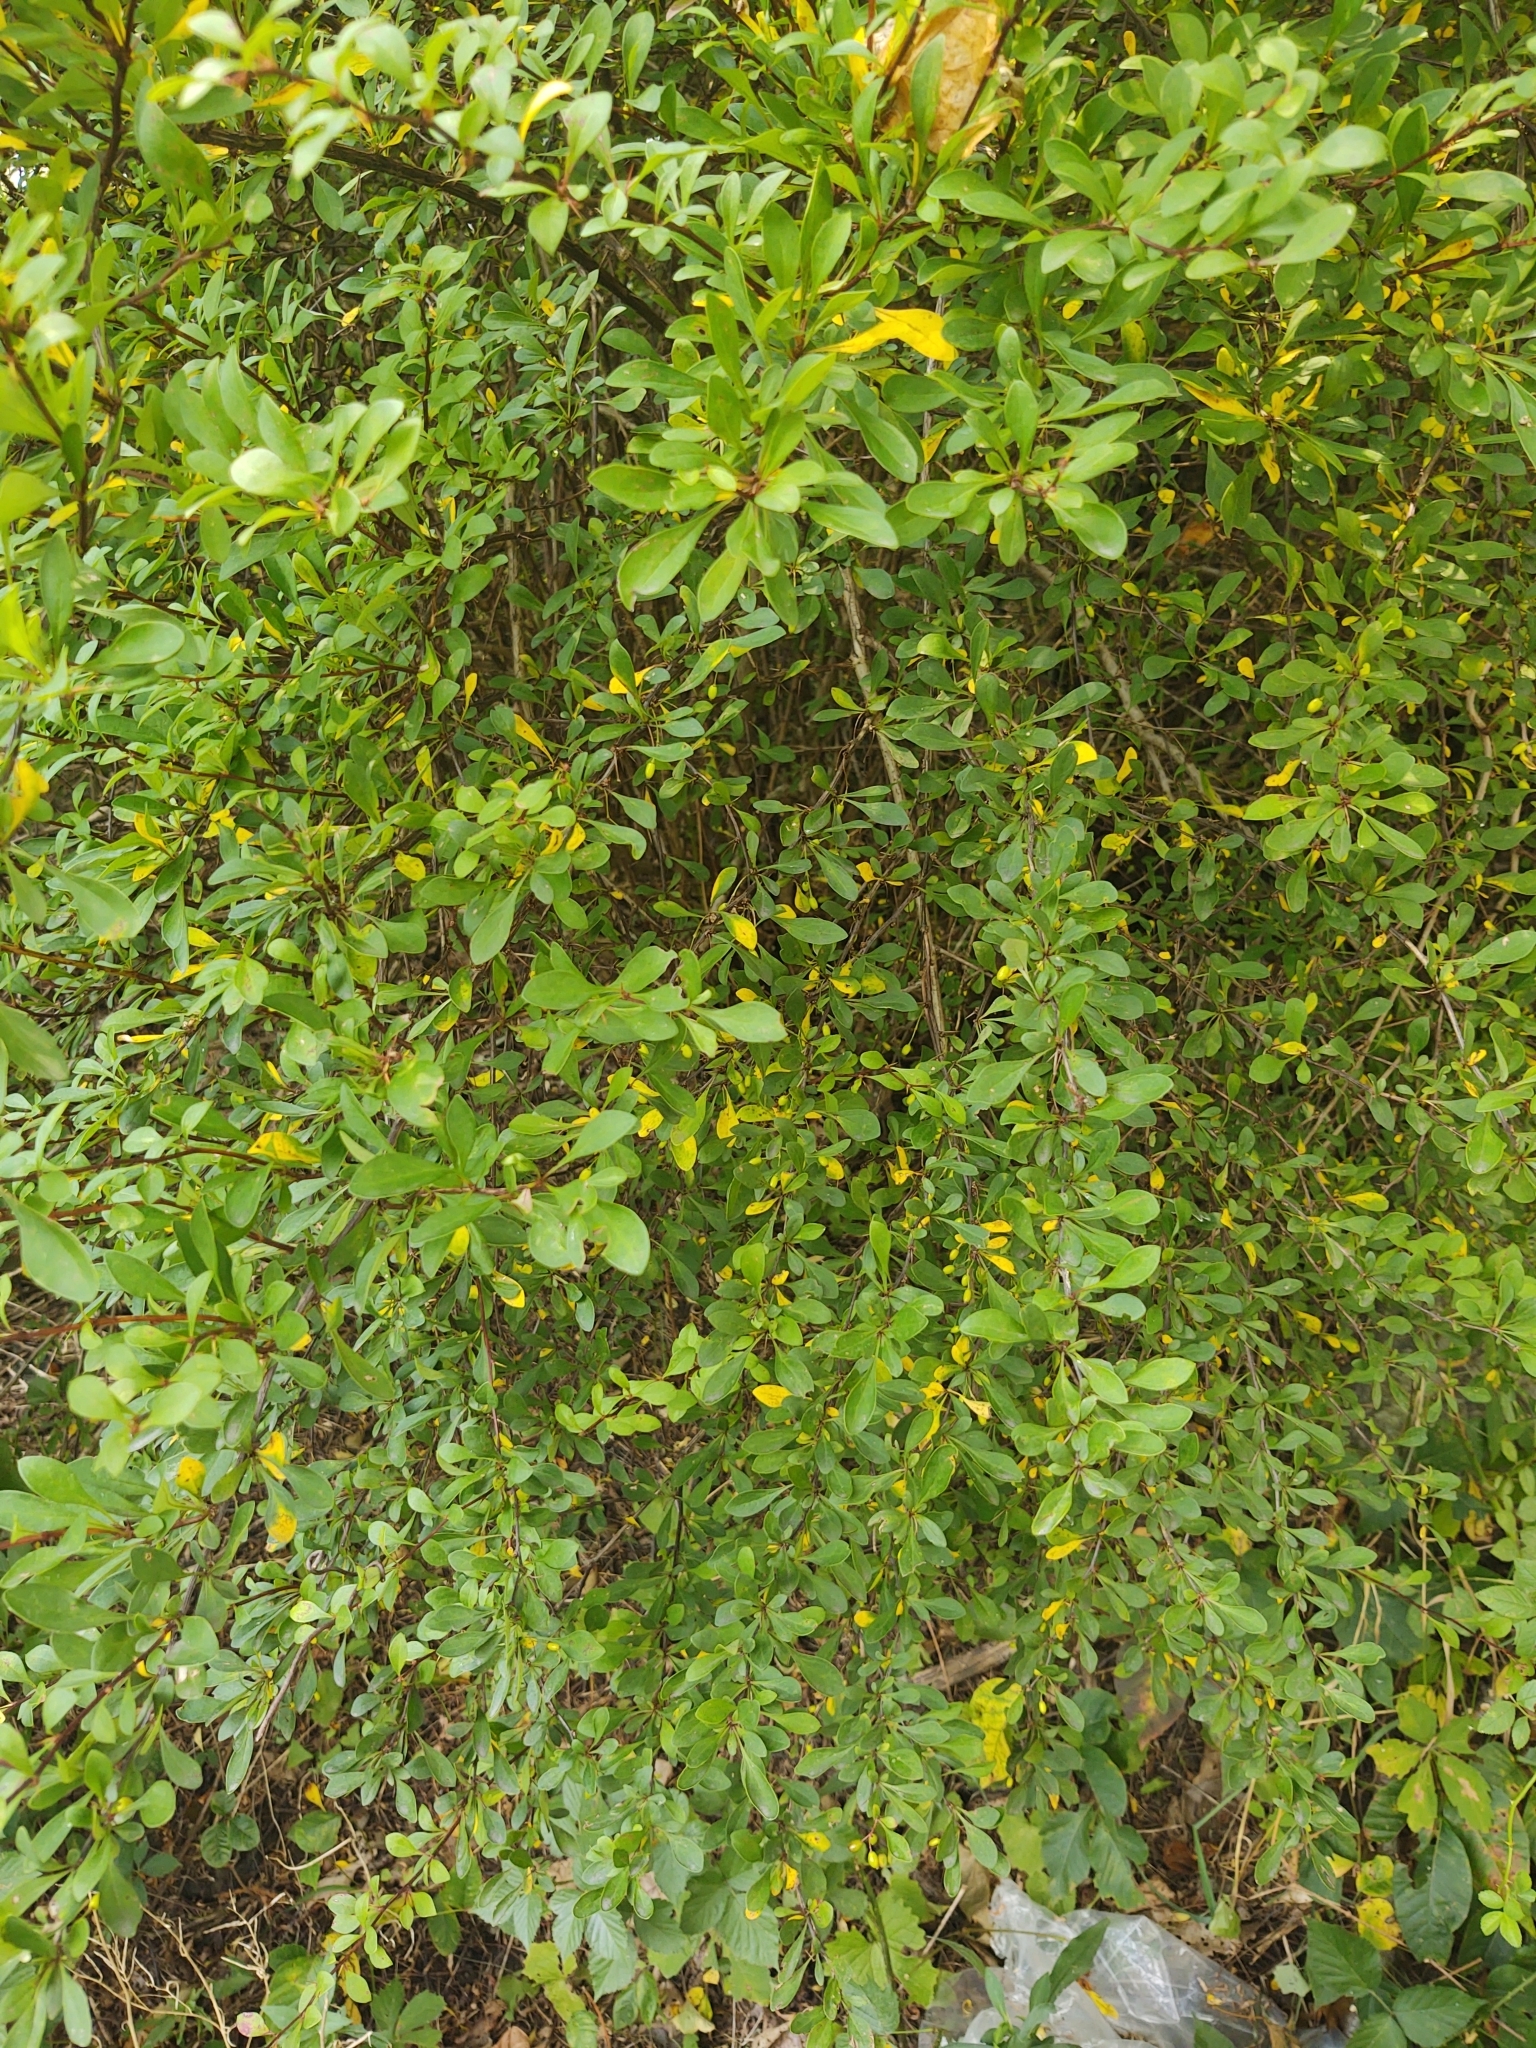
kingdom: Plantae
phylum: Tracheophyta
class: Magnoliopsida
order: Ranunculales
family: Berberidaceae
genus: Berberis
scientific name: Berberis thunbergii
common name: Japanese barberry
